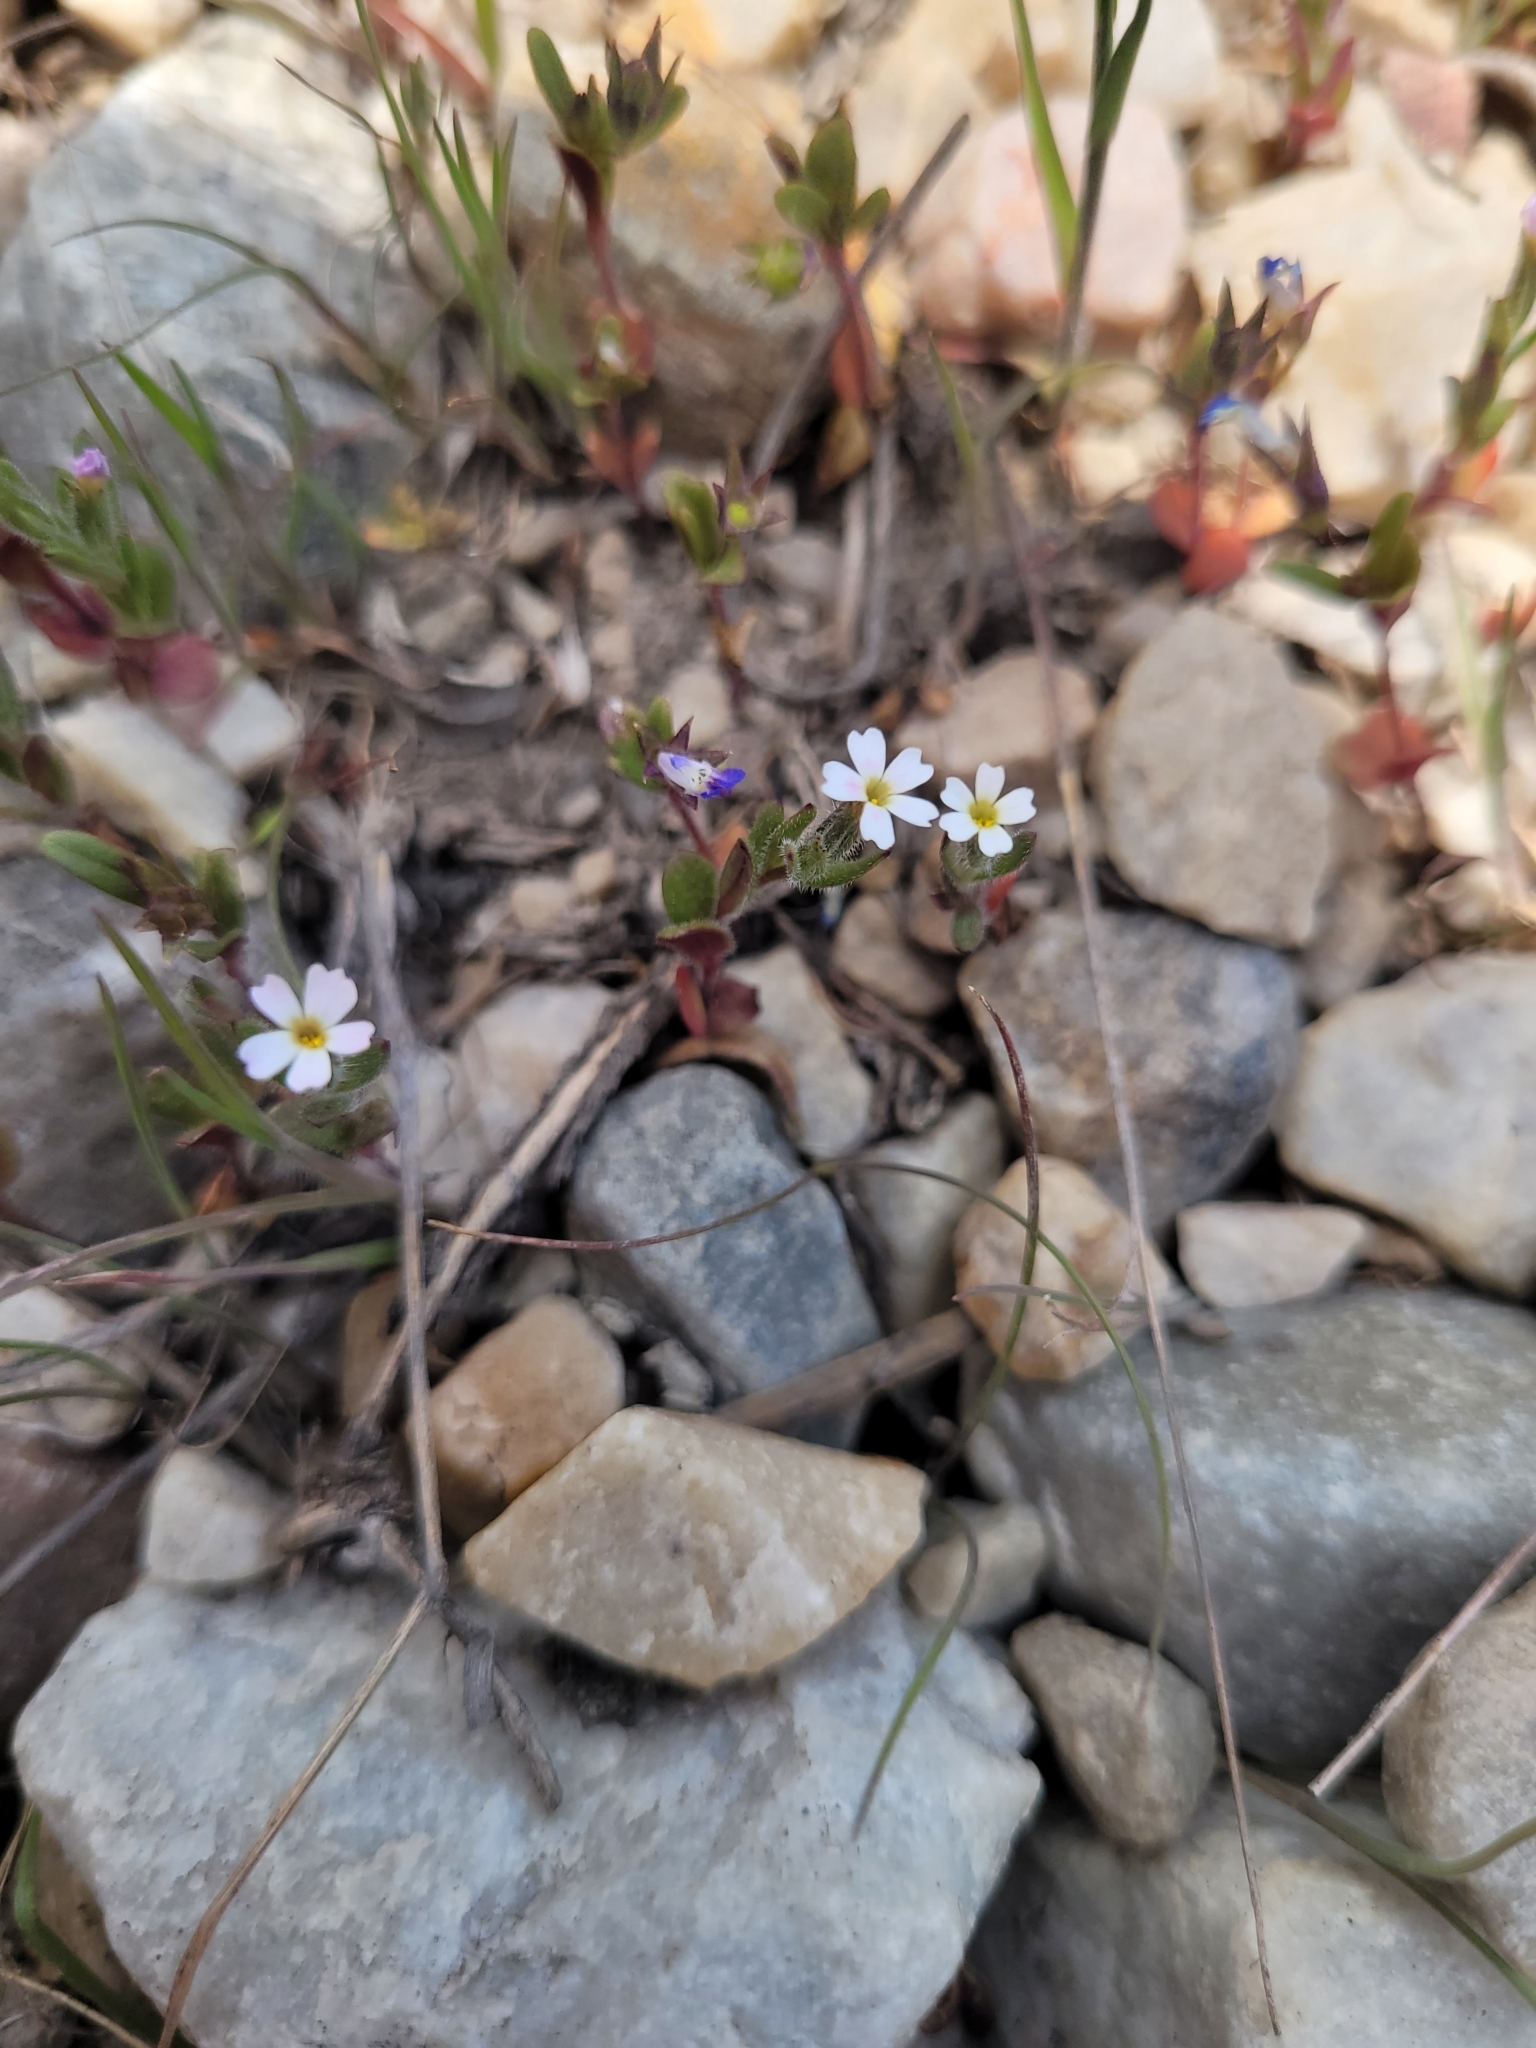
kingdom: Plantae
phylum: Tracheophyta
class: Magnoliopsida
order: Ericales
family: Polemoniaceae
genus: Phlox
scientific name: Phlox gracilis
